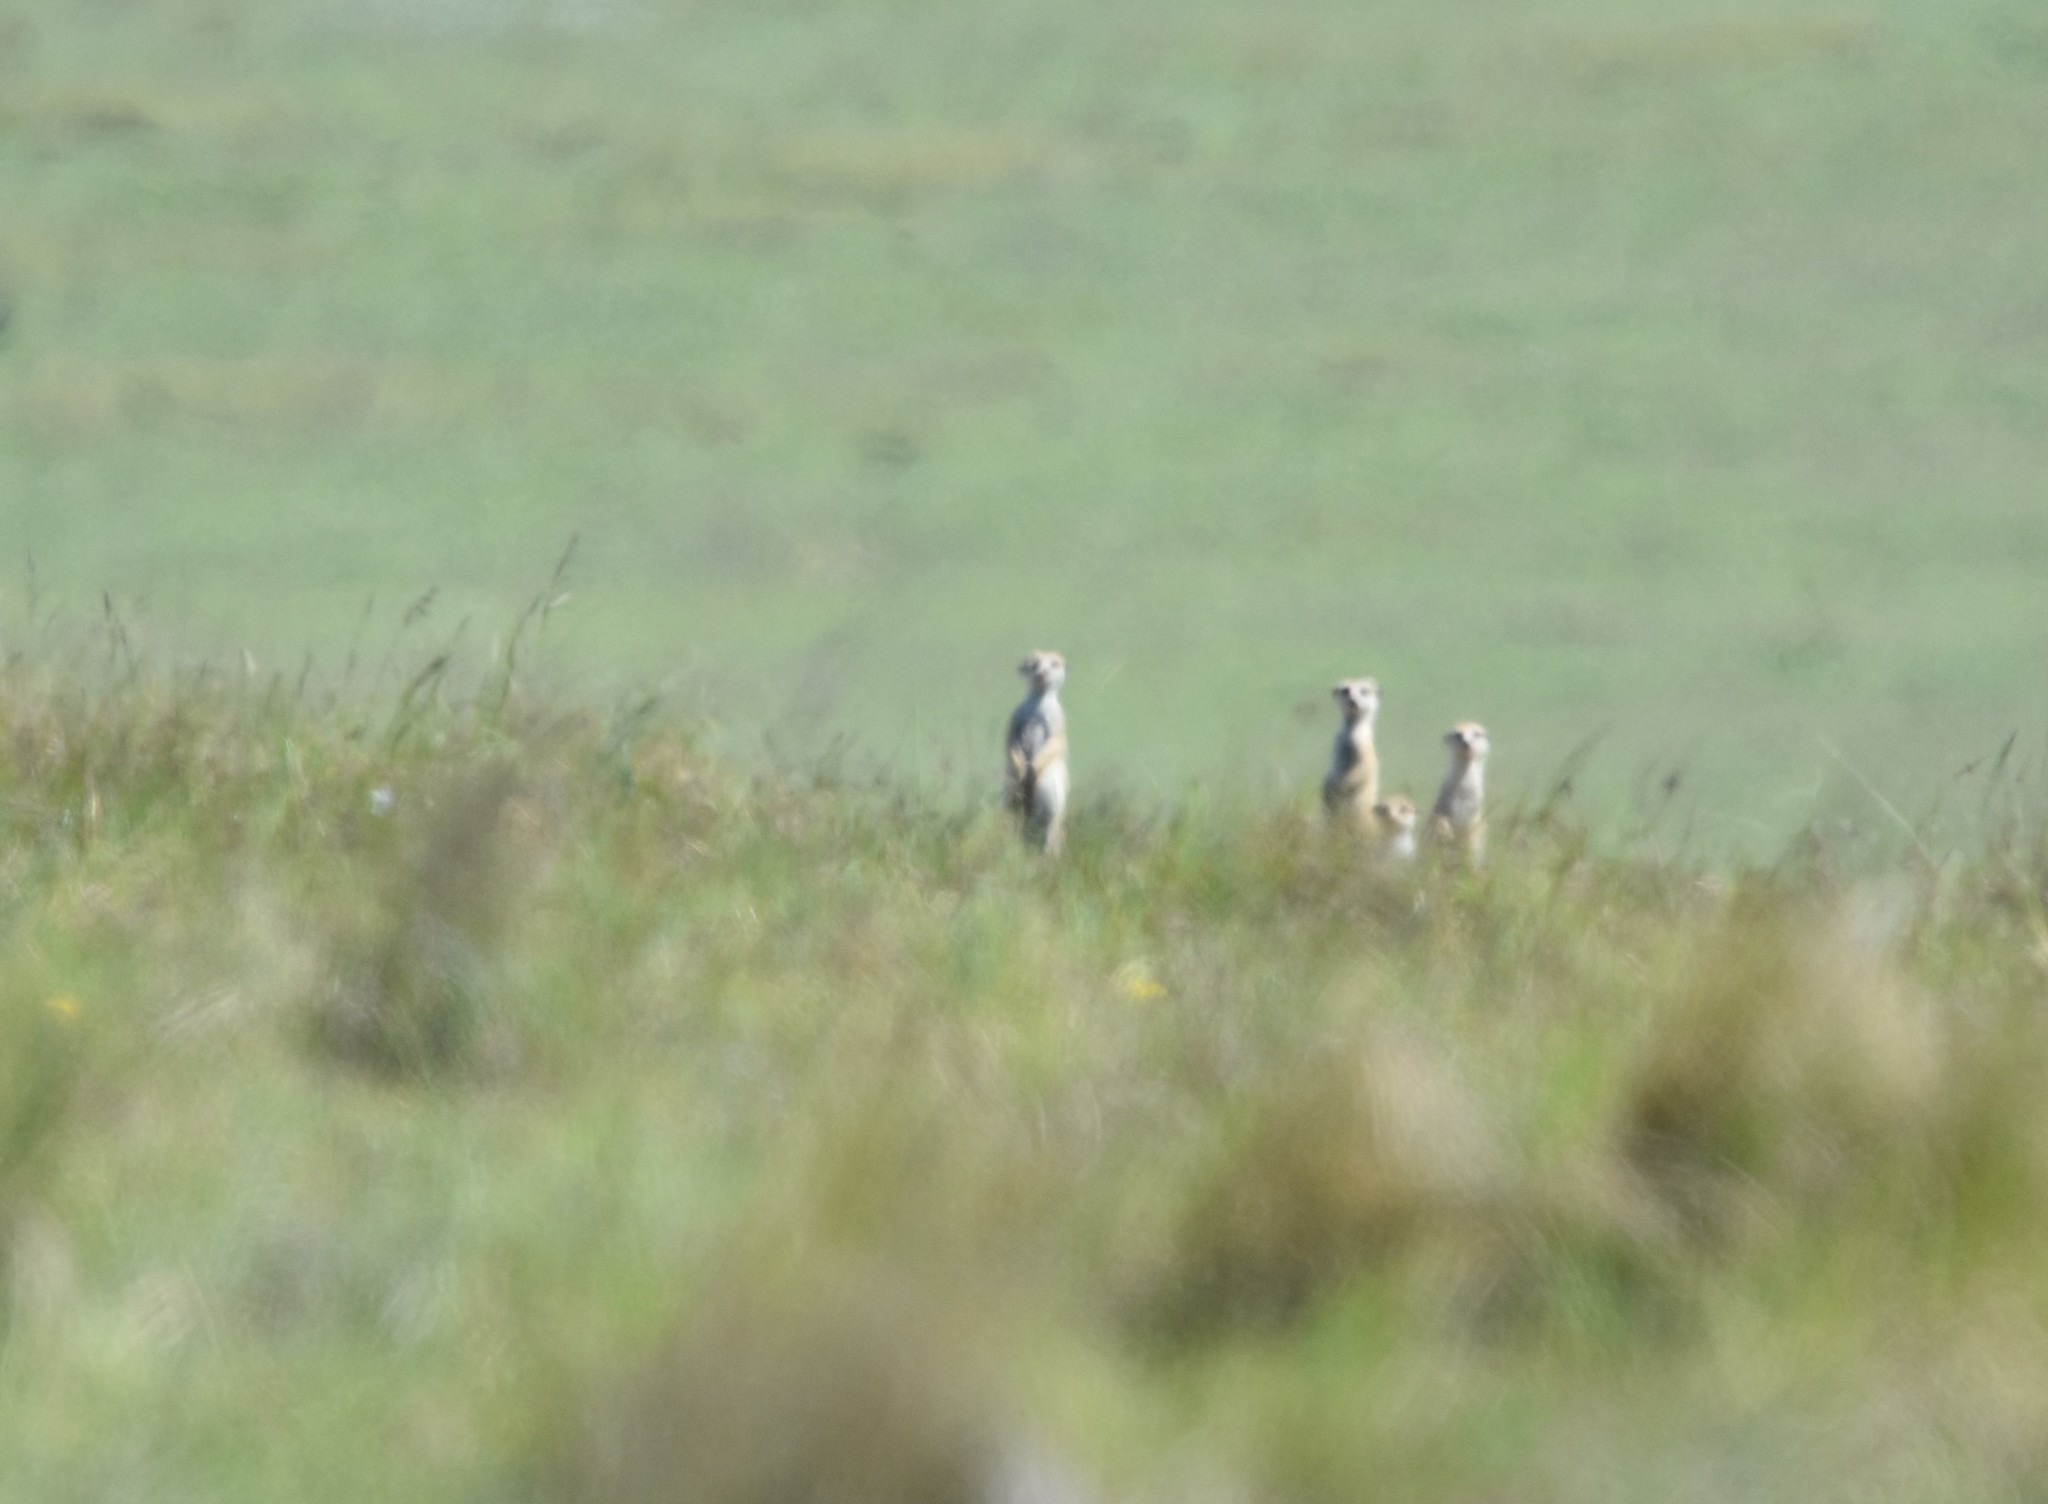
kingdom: Animalia
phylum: Chordata
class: Mammalia
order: Carnivora
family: Herpestidae
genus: Suricata
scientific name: Suricata suricatta
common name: Meerkat
